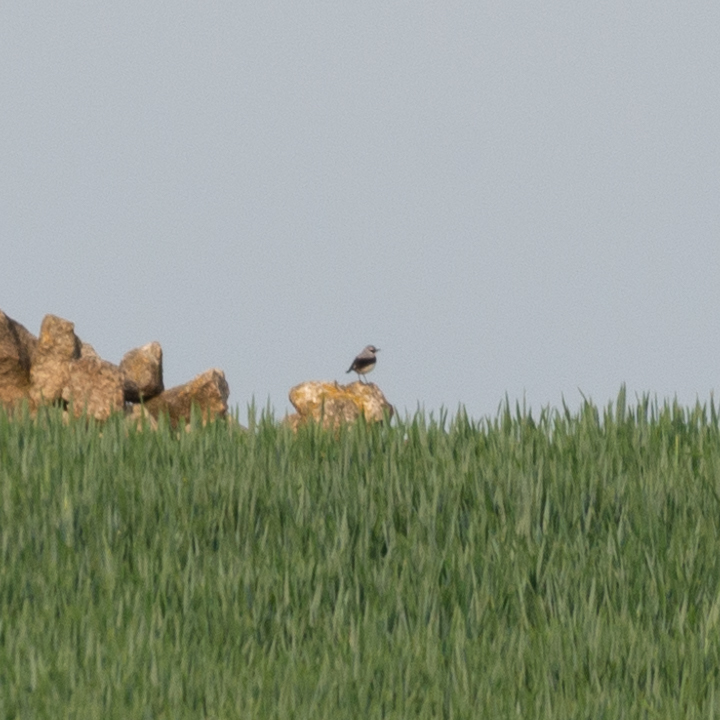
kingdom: Animalia
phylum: Chordata
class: Aves
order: Passeriformes
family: Muscicapidae
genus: Oenanthe
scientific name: Oenanthe oenanthe
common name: Northern wheatear
